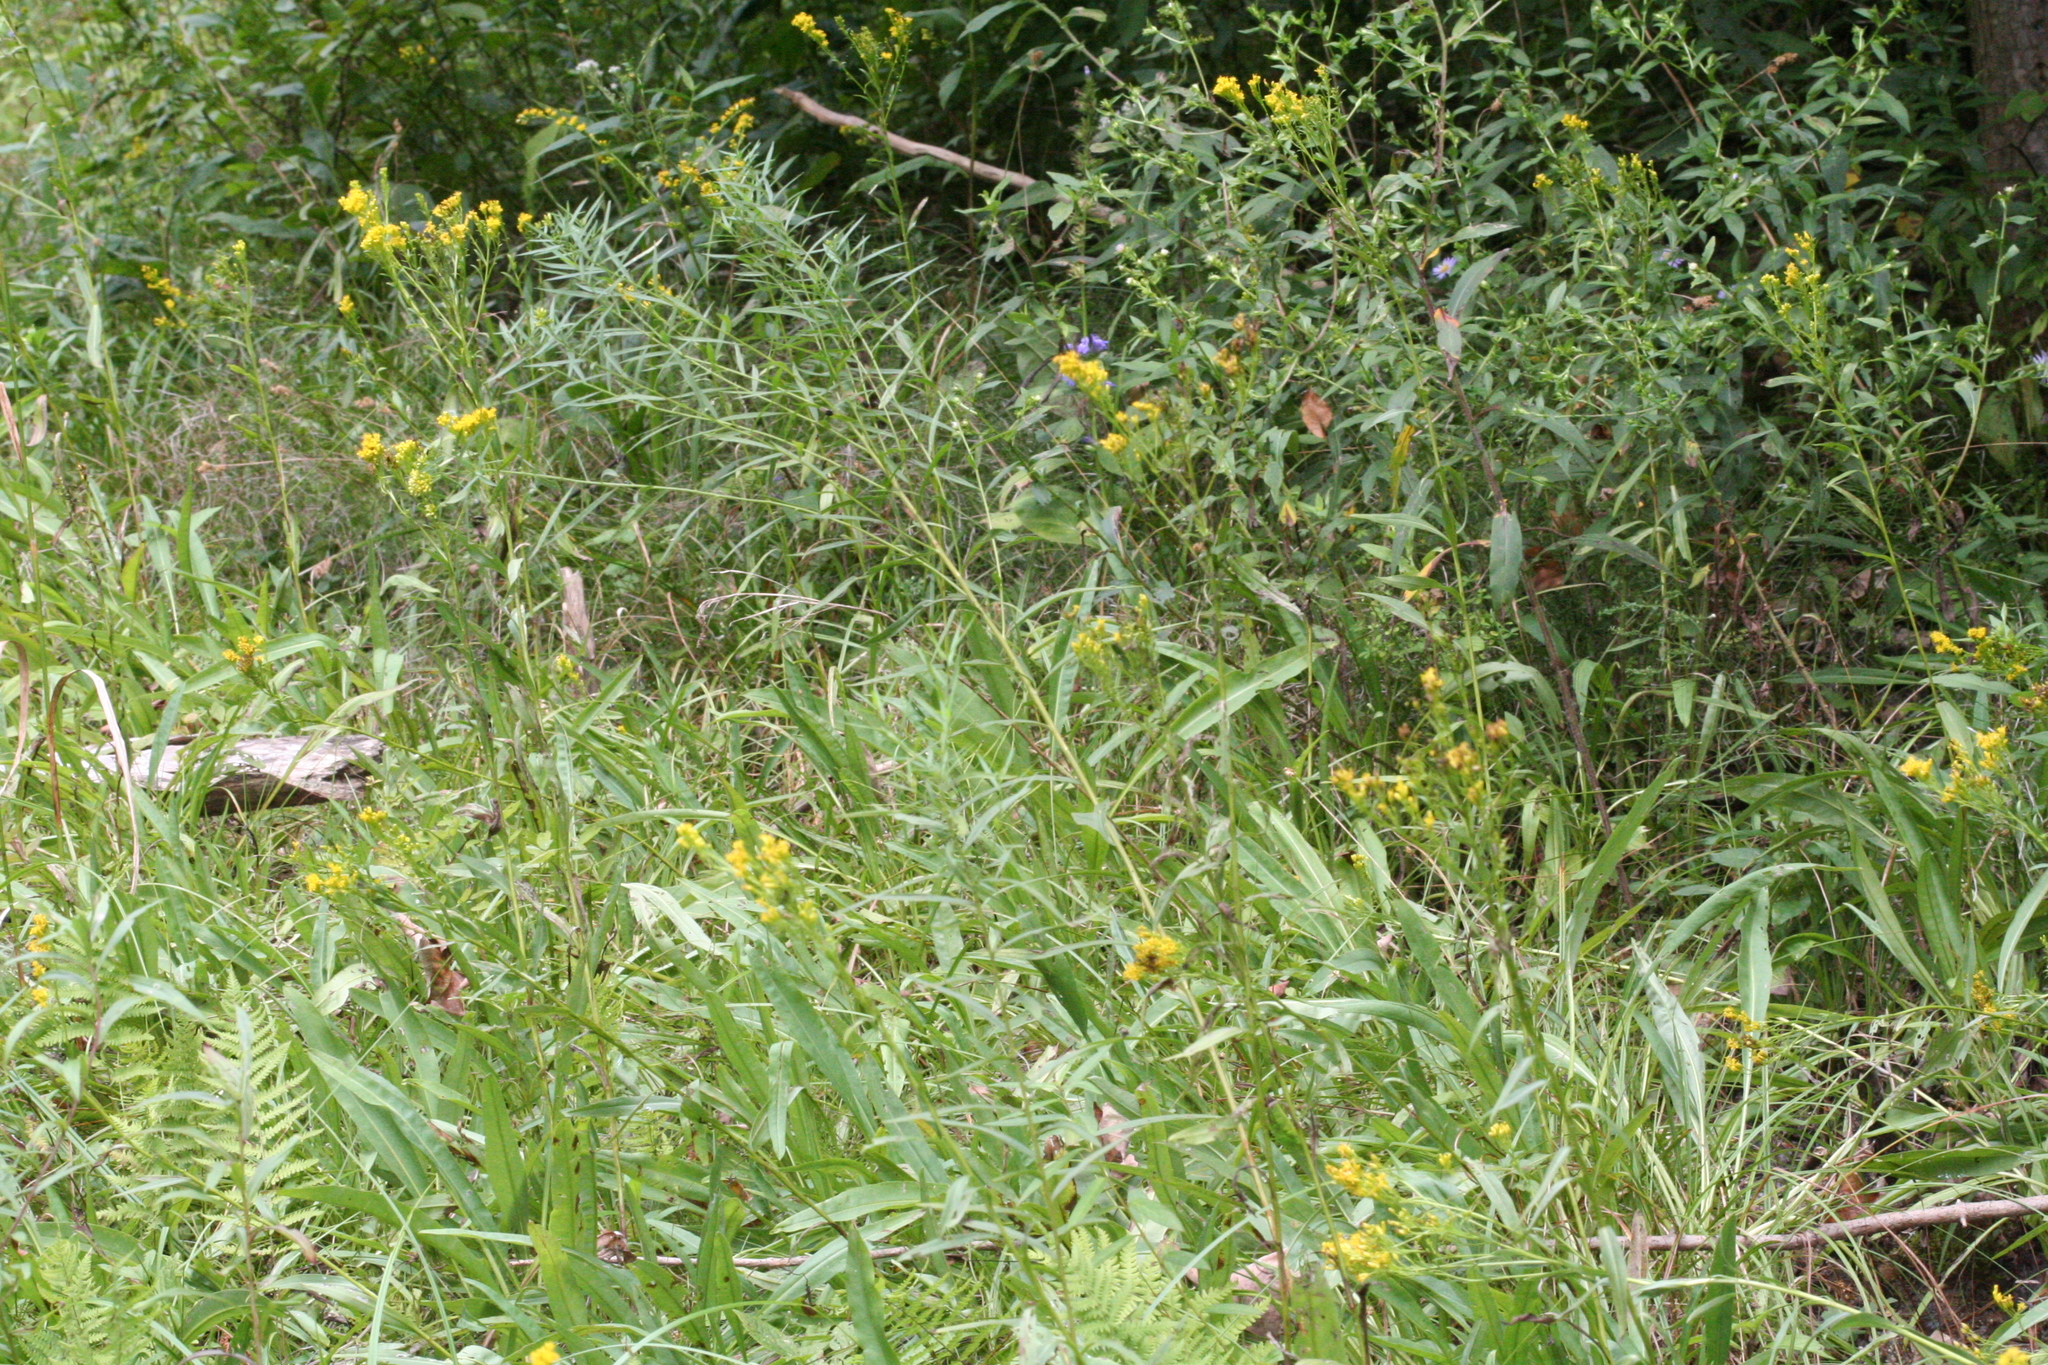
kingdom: Plantae
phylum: Tracheophyta
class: Magnoliopsida
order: Asterales
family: Asteraceae
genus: Solidago
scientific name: Solidago ohioensis
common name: Ohio goldenrod
